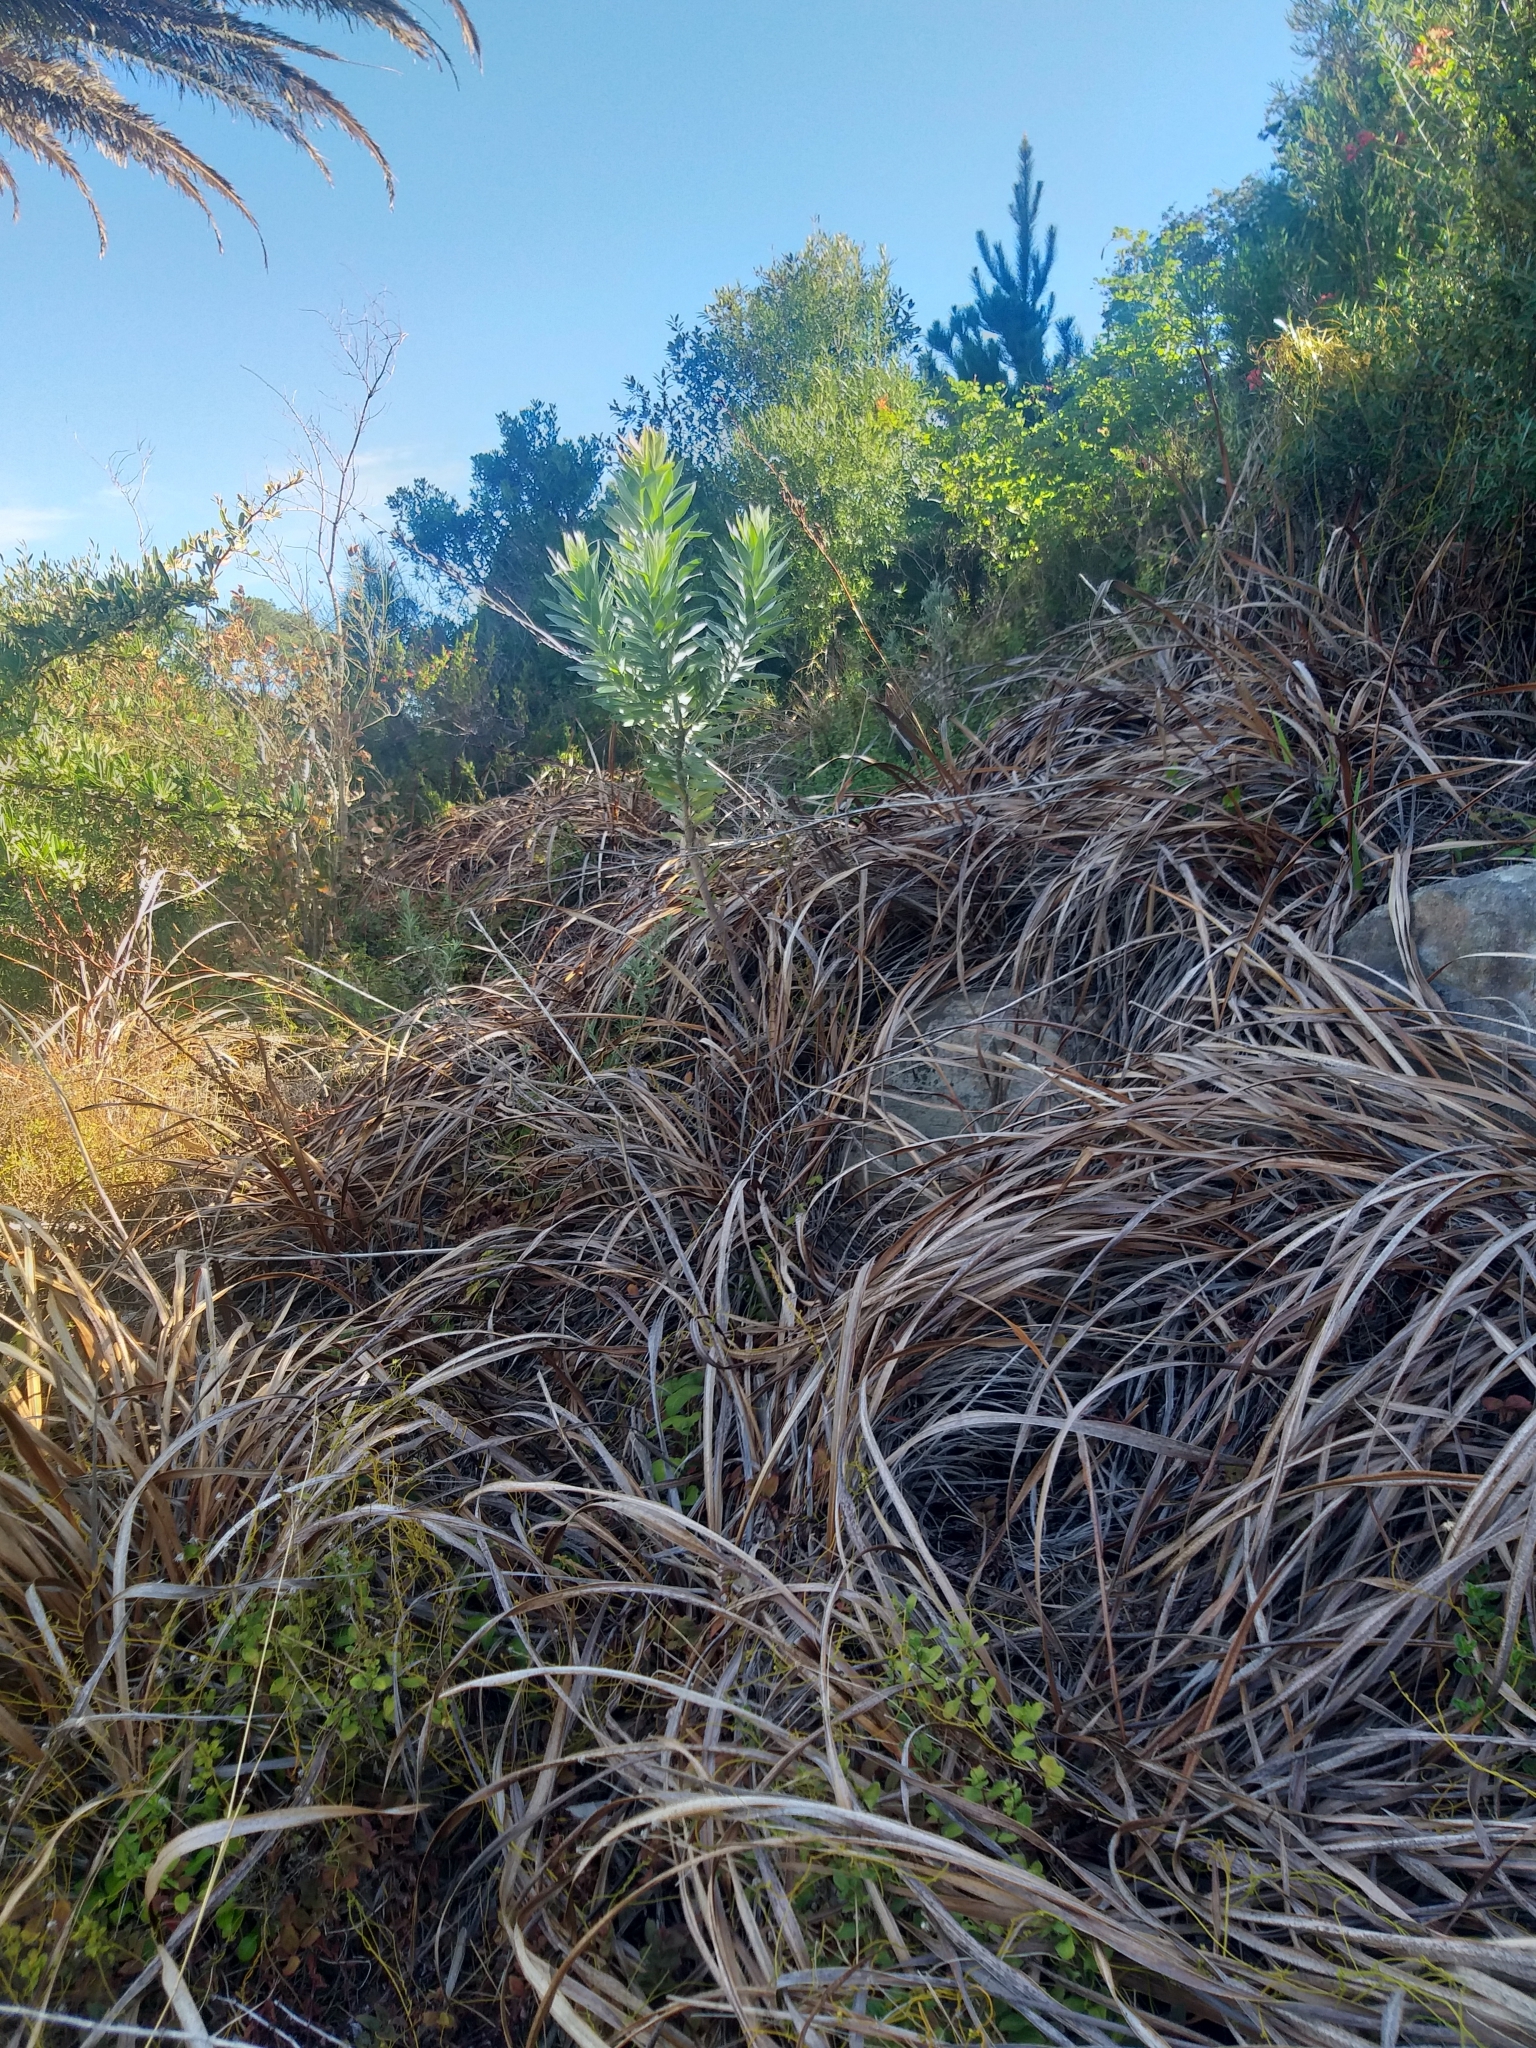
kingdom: Plantae
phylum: Tracheophyta
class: Magnoliopsida
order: Proteales
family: Proteaceae
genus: Leucadendron
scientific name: Leucadendron argenteum
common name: Cape silver tree
